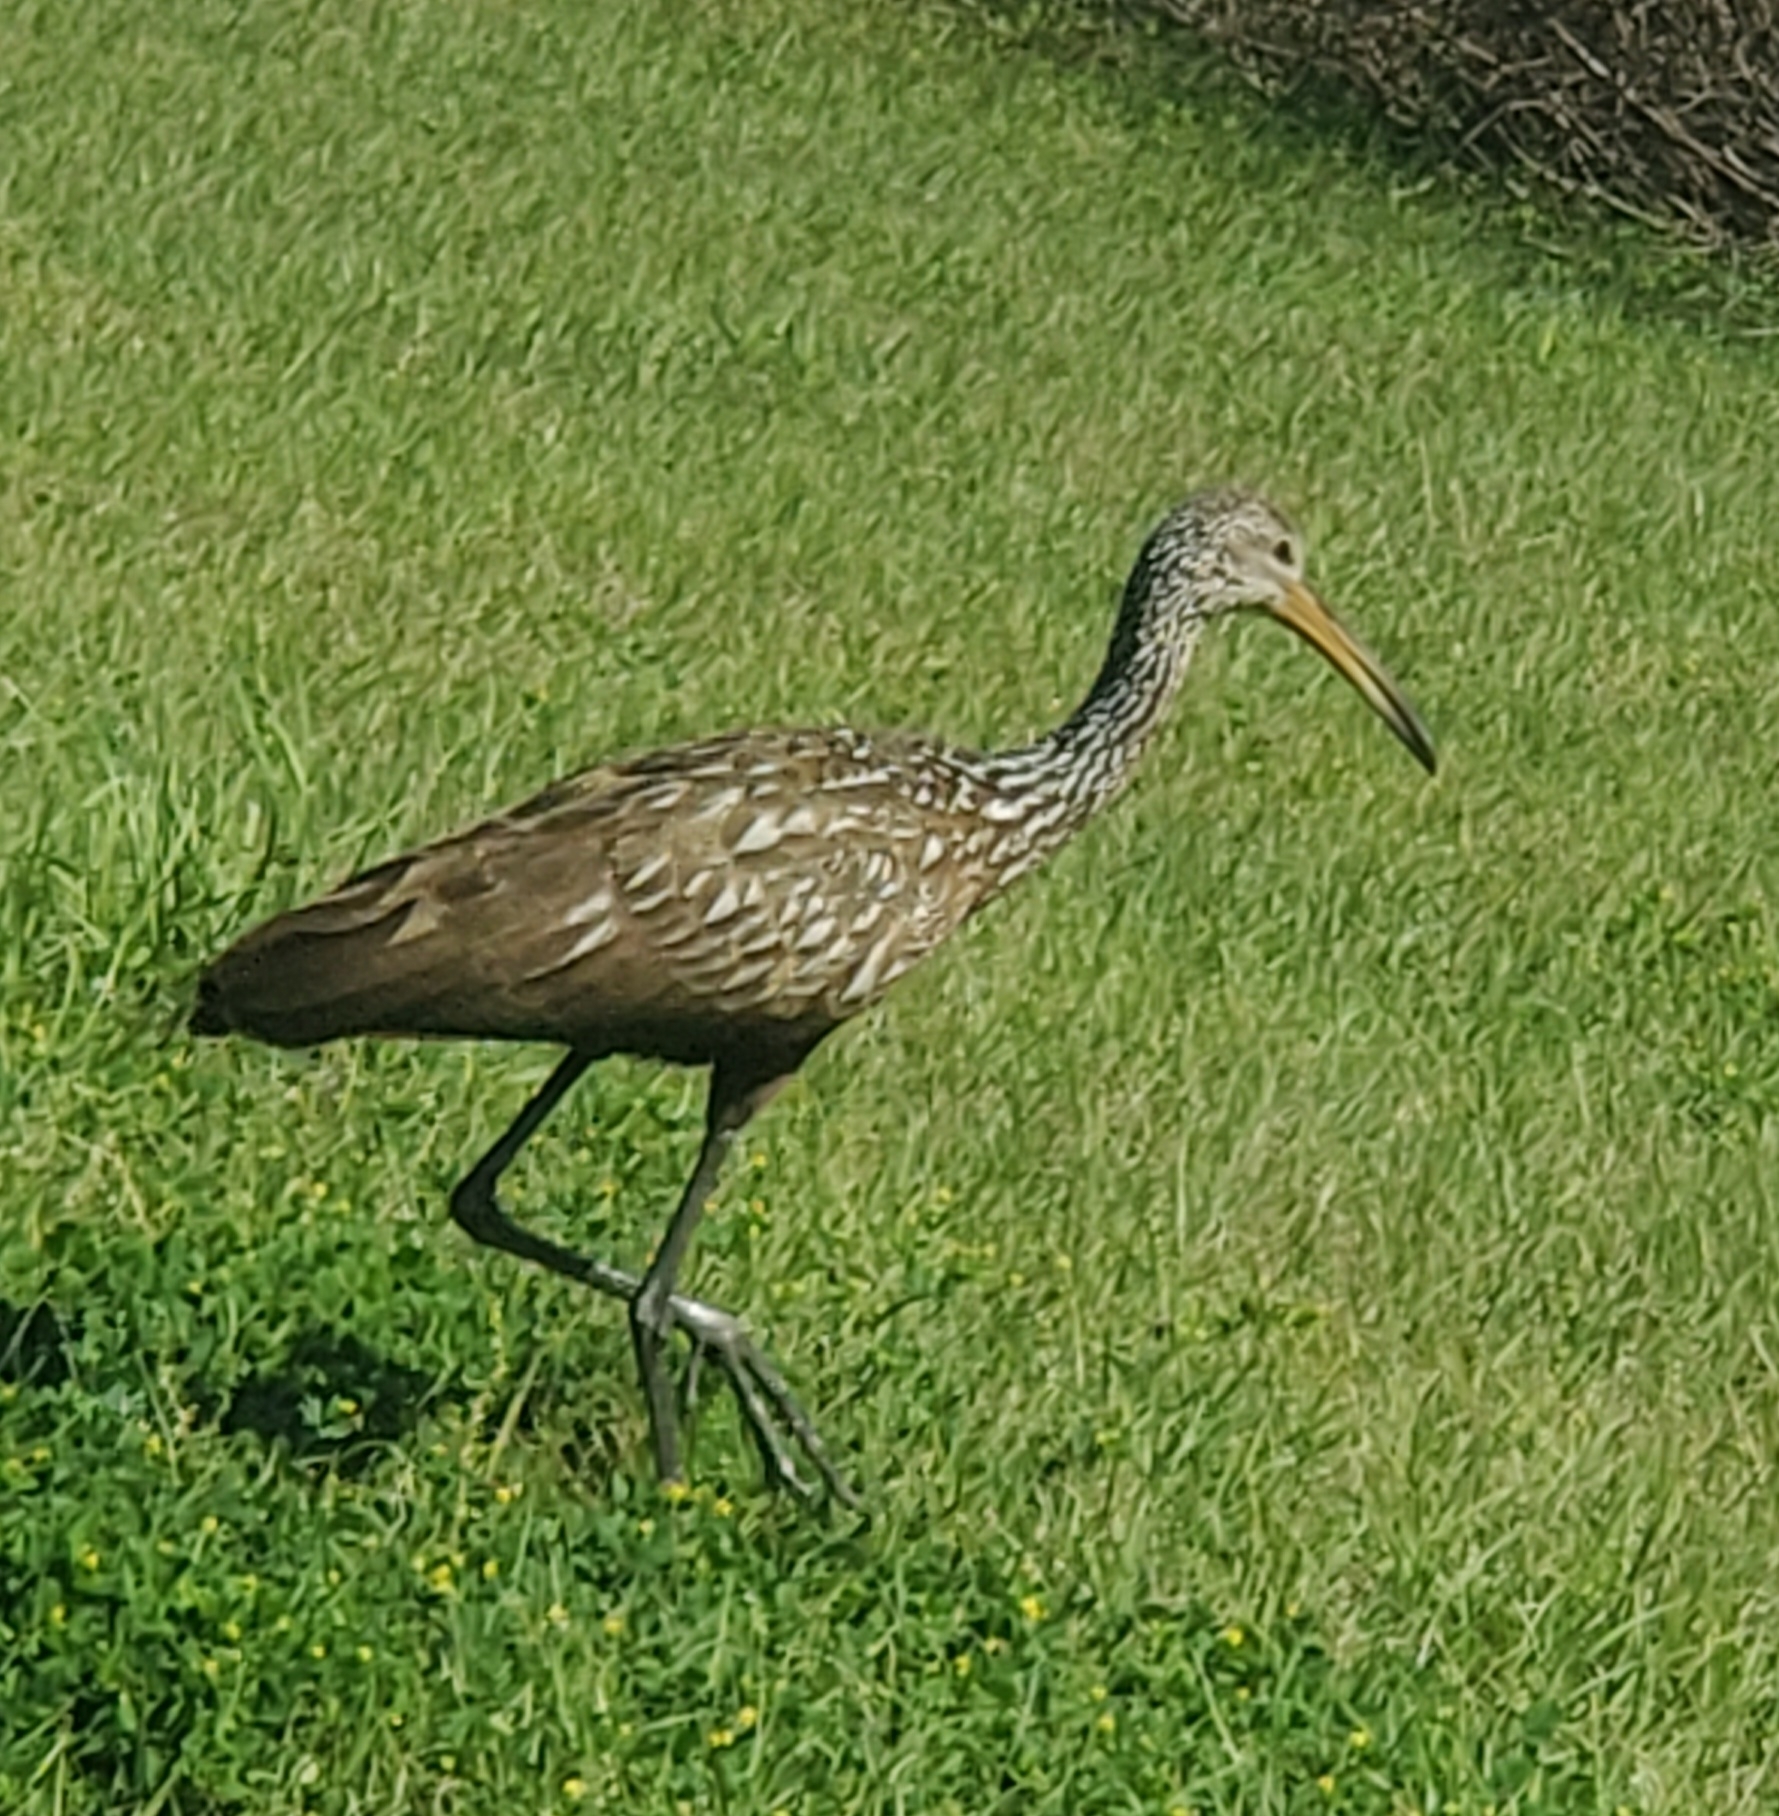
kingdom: Animalia
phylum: Chordata
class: Aves
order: Gruiformes
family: Aramidae
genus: Aramus
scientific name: Aramus guarauna
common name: Limpkin
